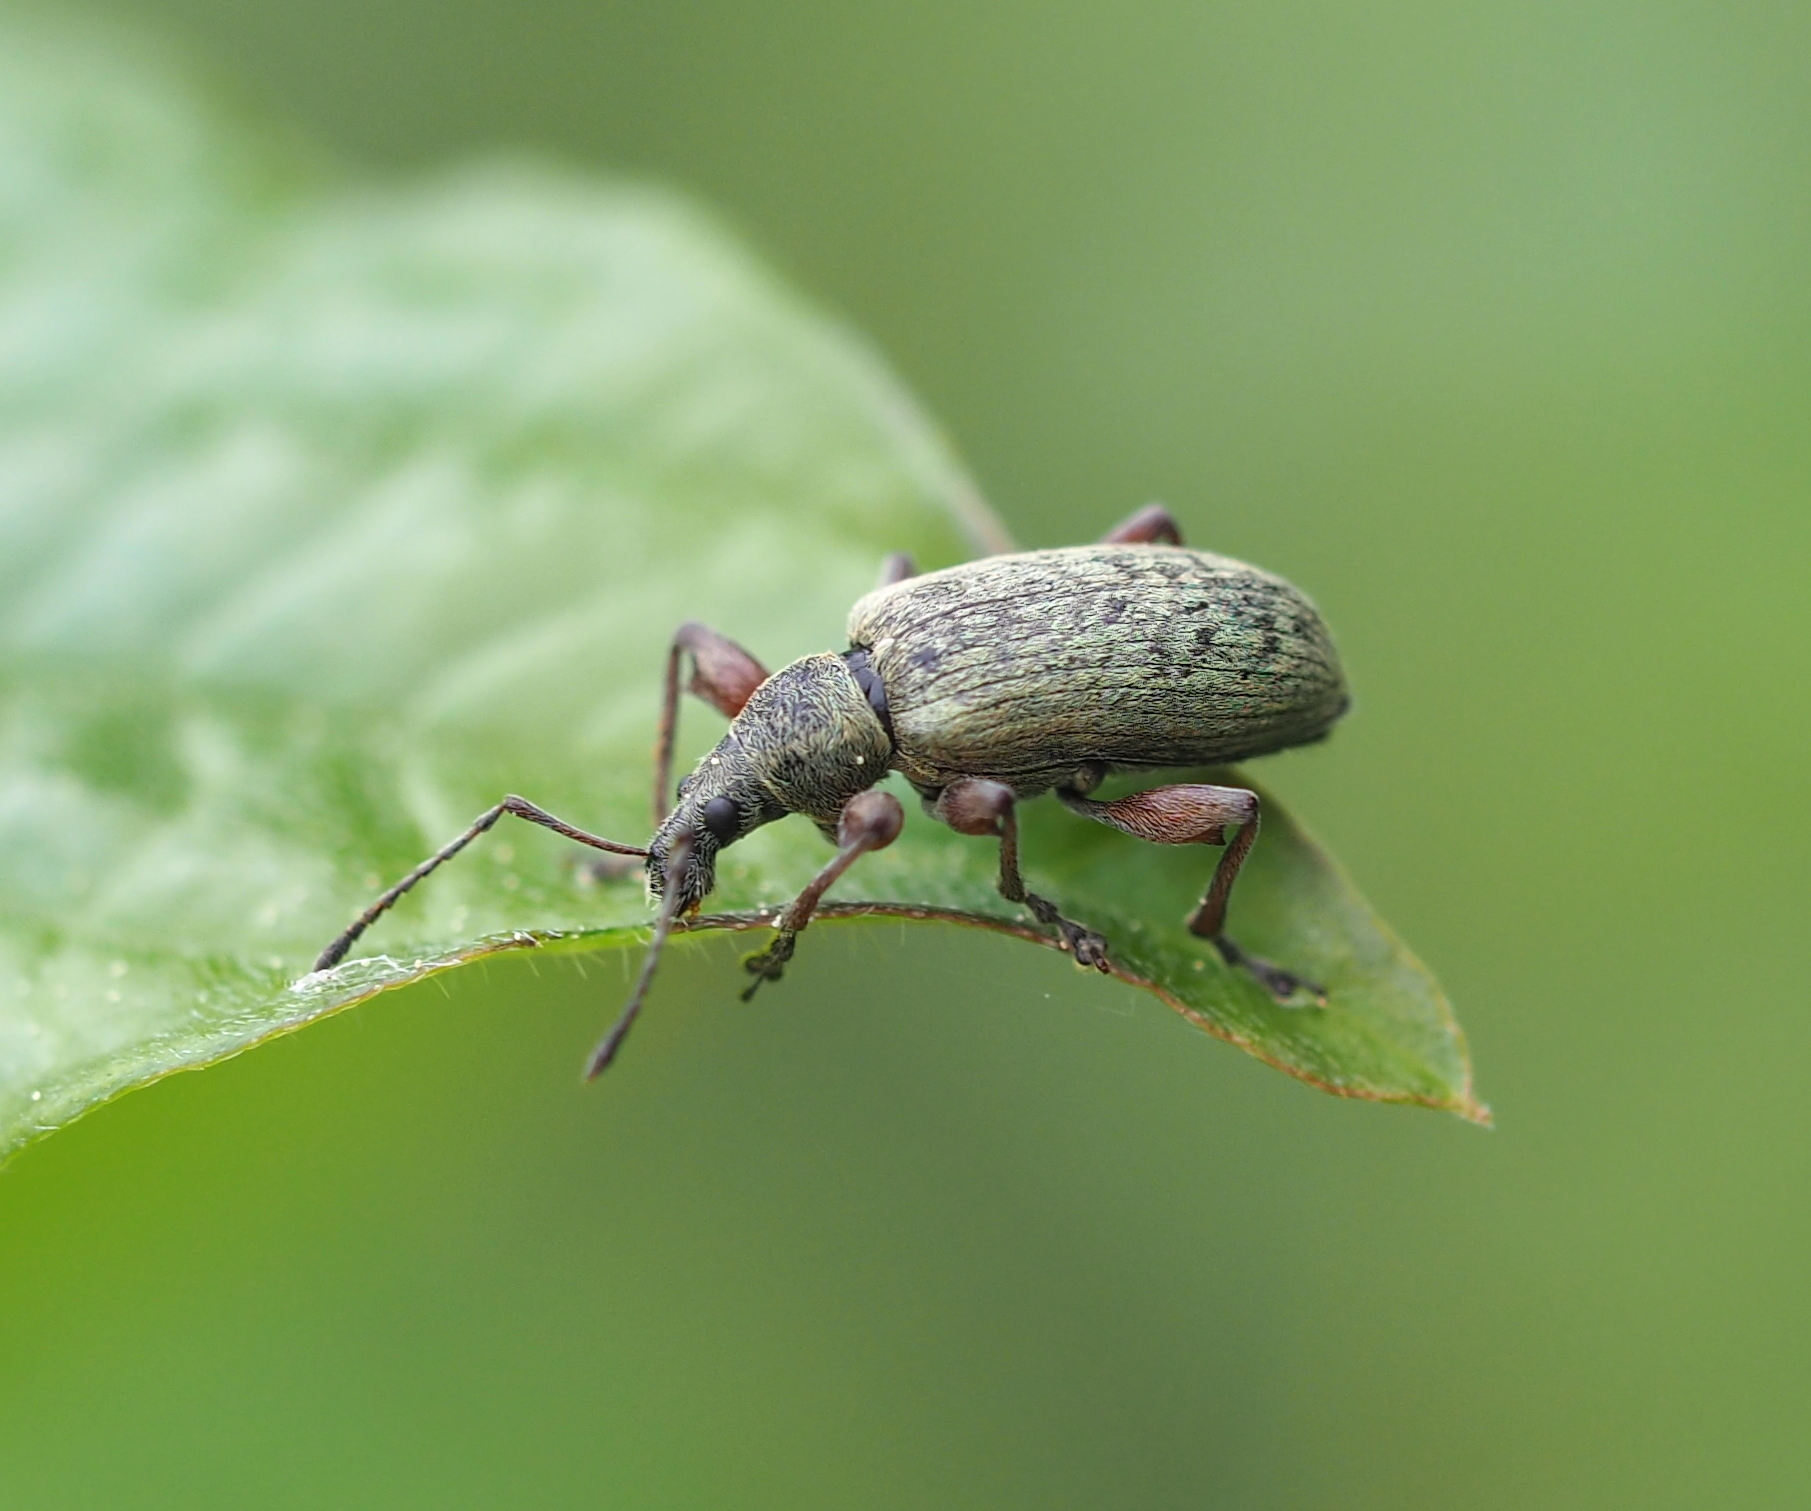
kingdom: Animalia
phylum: Arthropoda
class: Insecta
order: Coleoptera
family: Curculionidae
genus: Phyllobius
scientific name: Phyllobius glaucus
